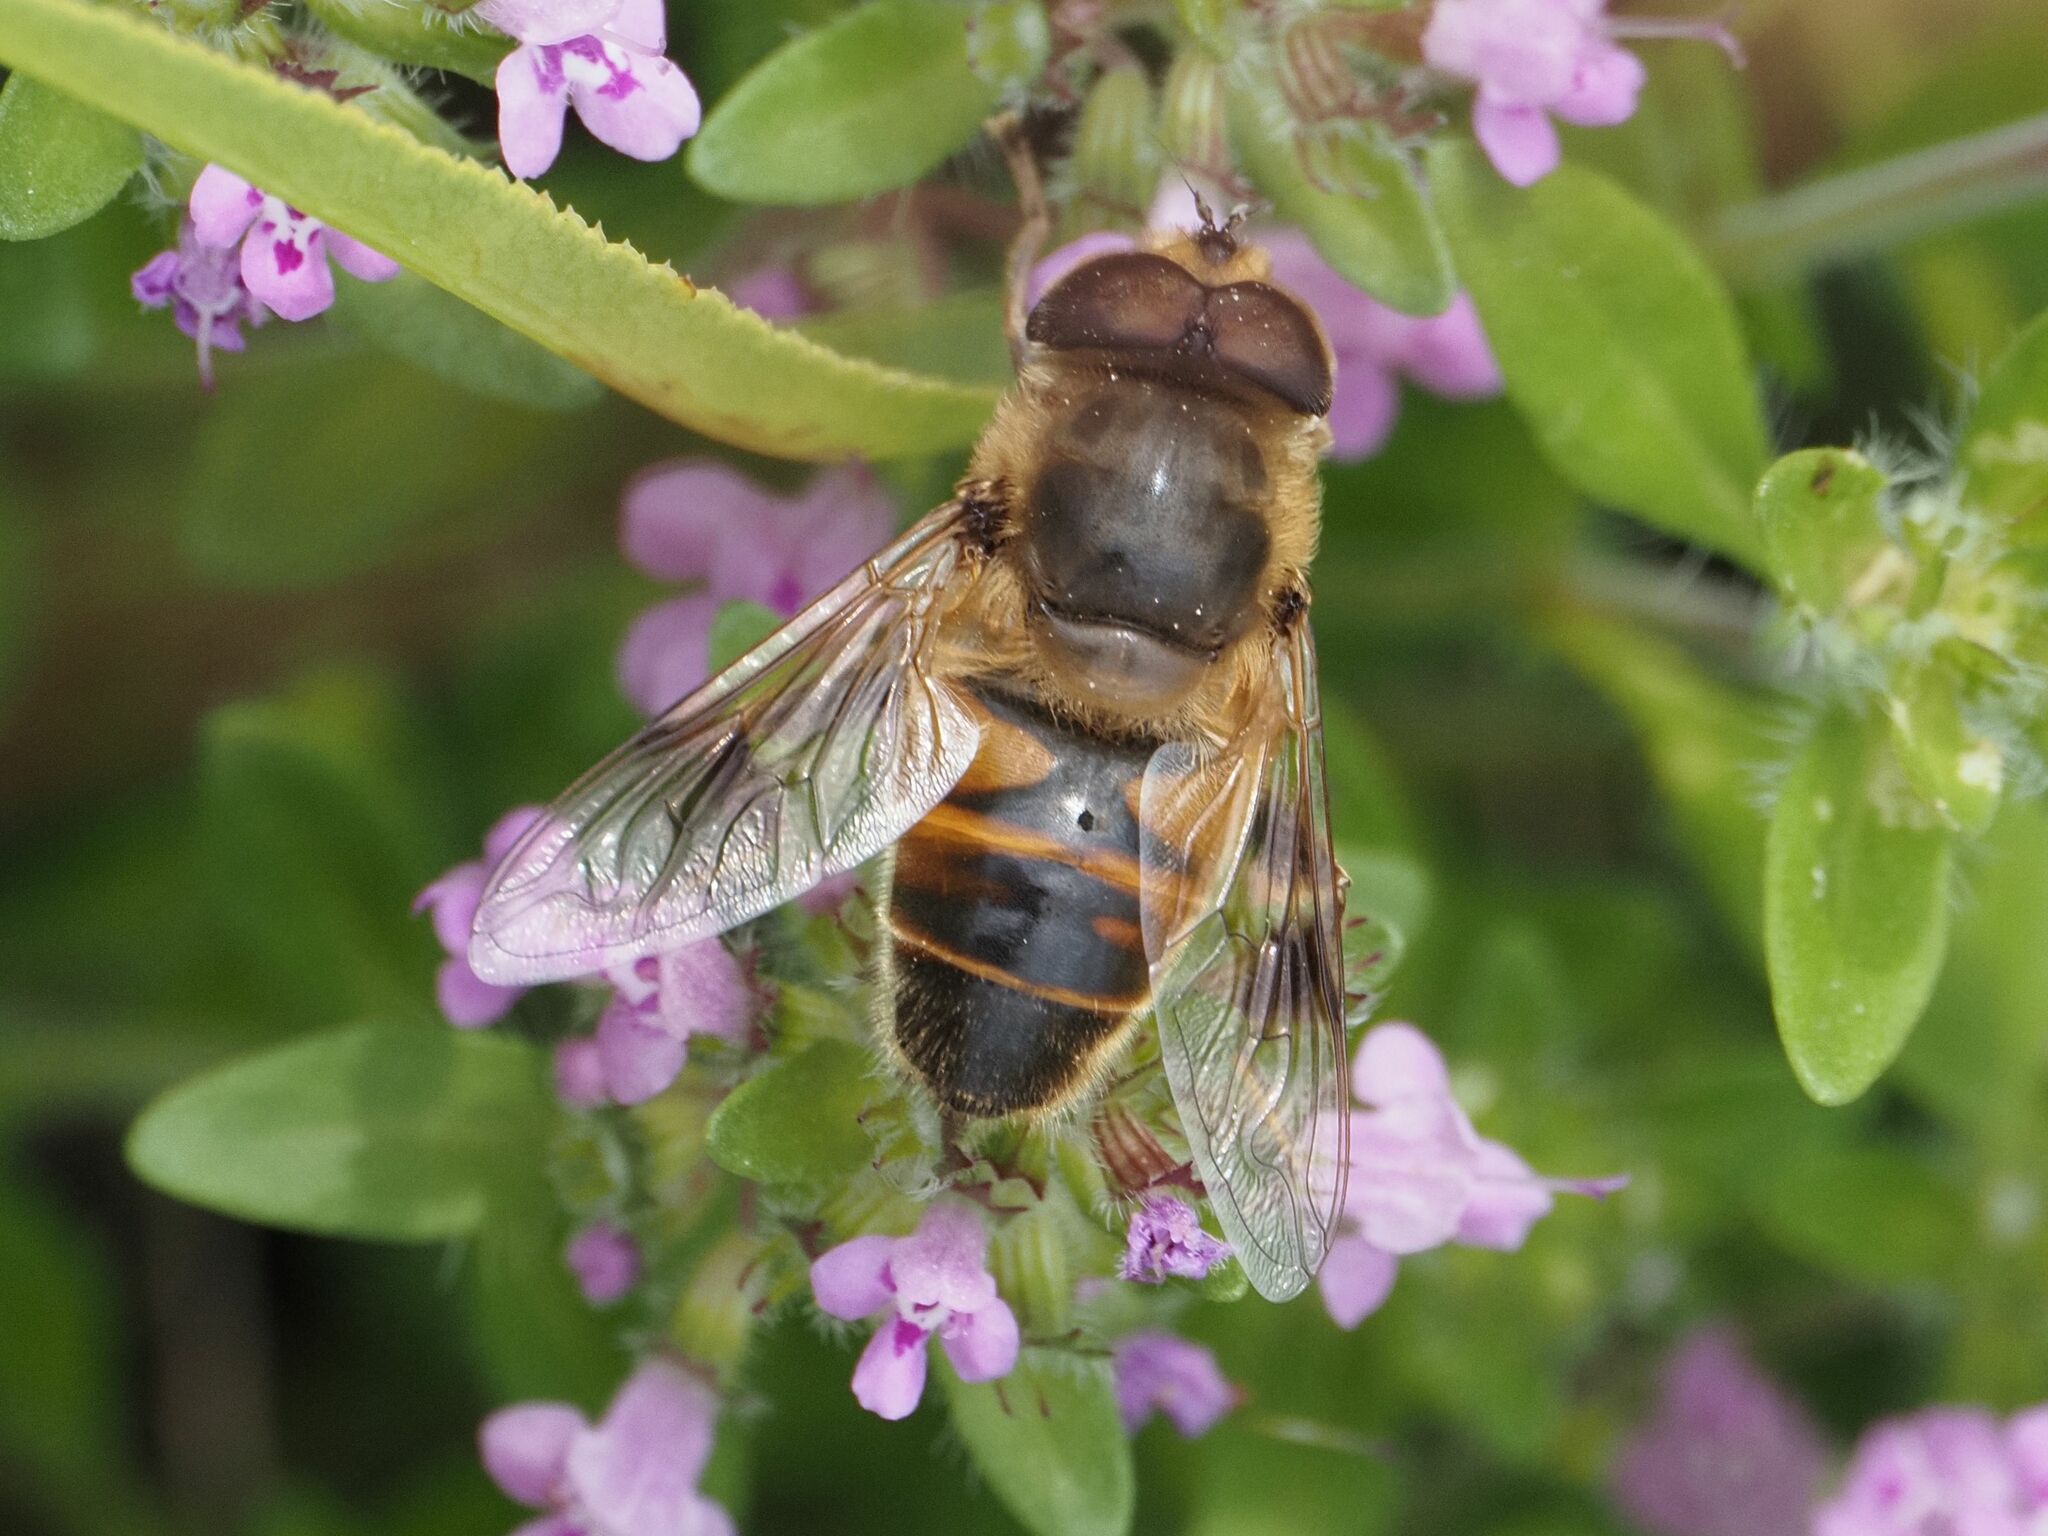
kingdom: Animalia
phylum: Arthropoda
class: Insecta
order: Diptera
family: Syrphidae
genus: Eristalis
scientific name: Eristalis tenax
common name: Drone fly
